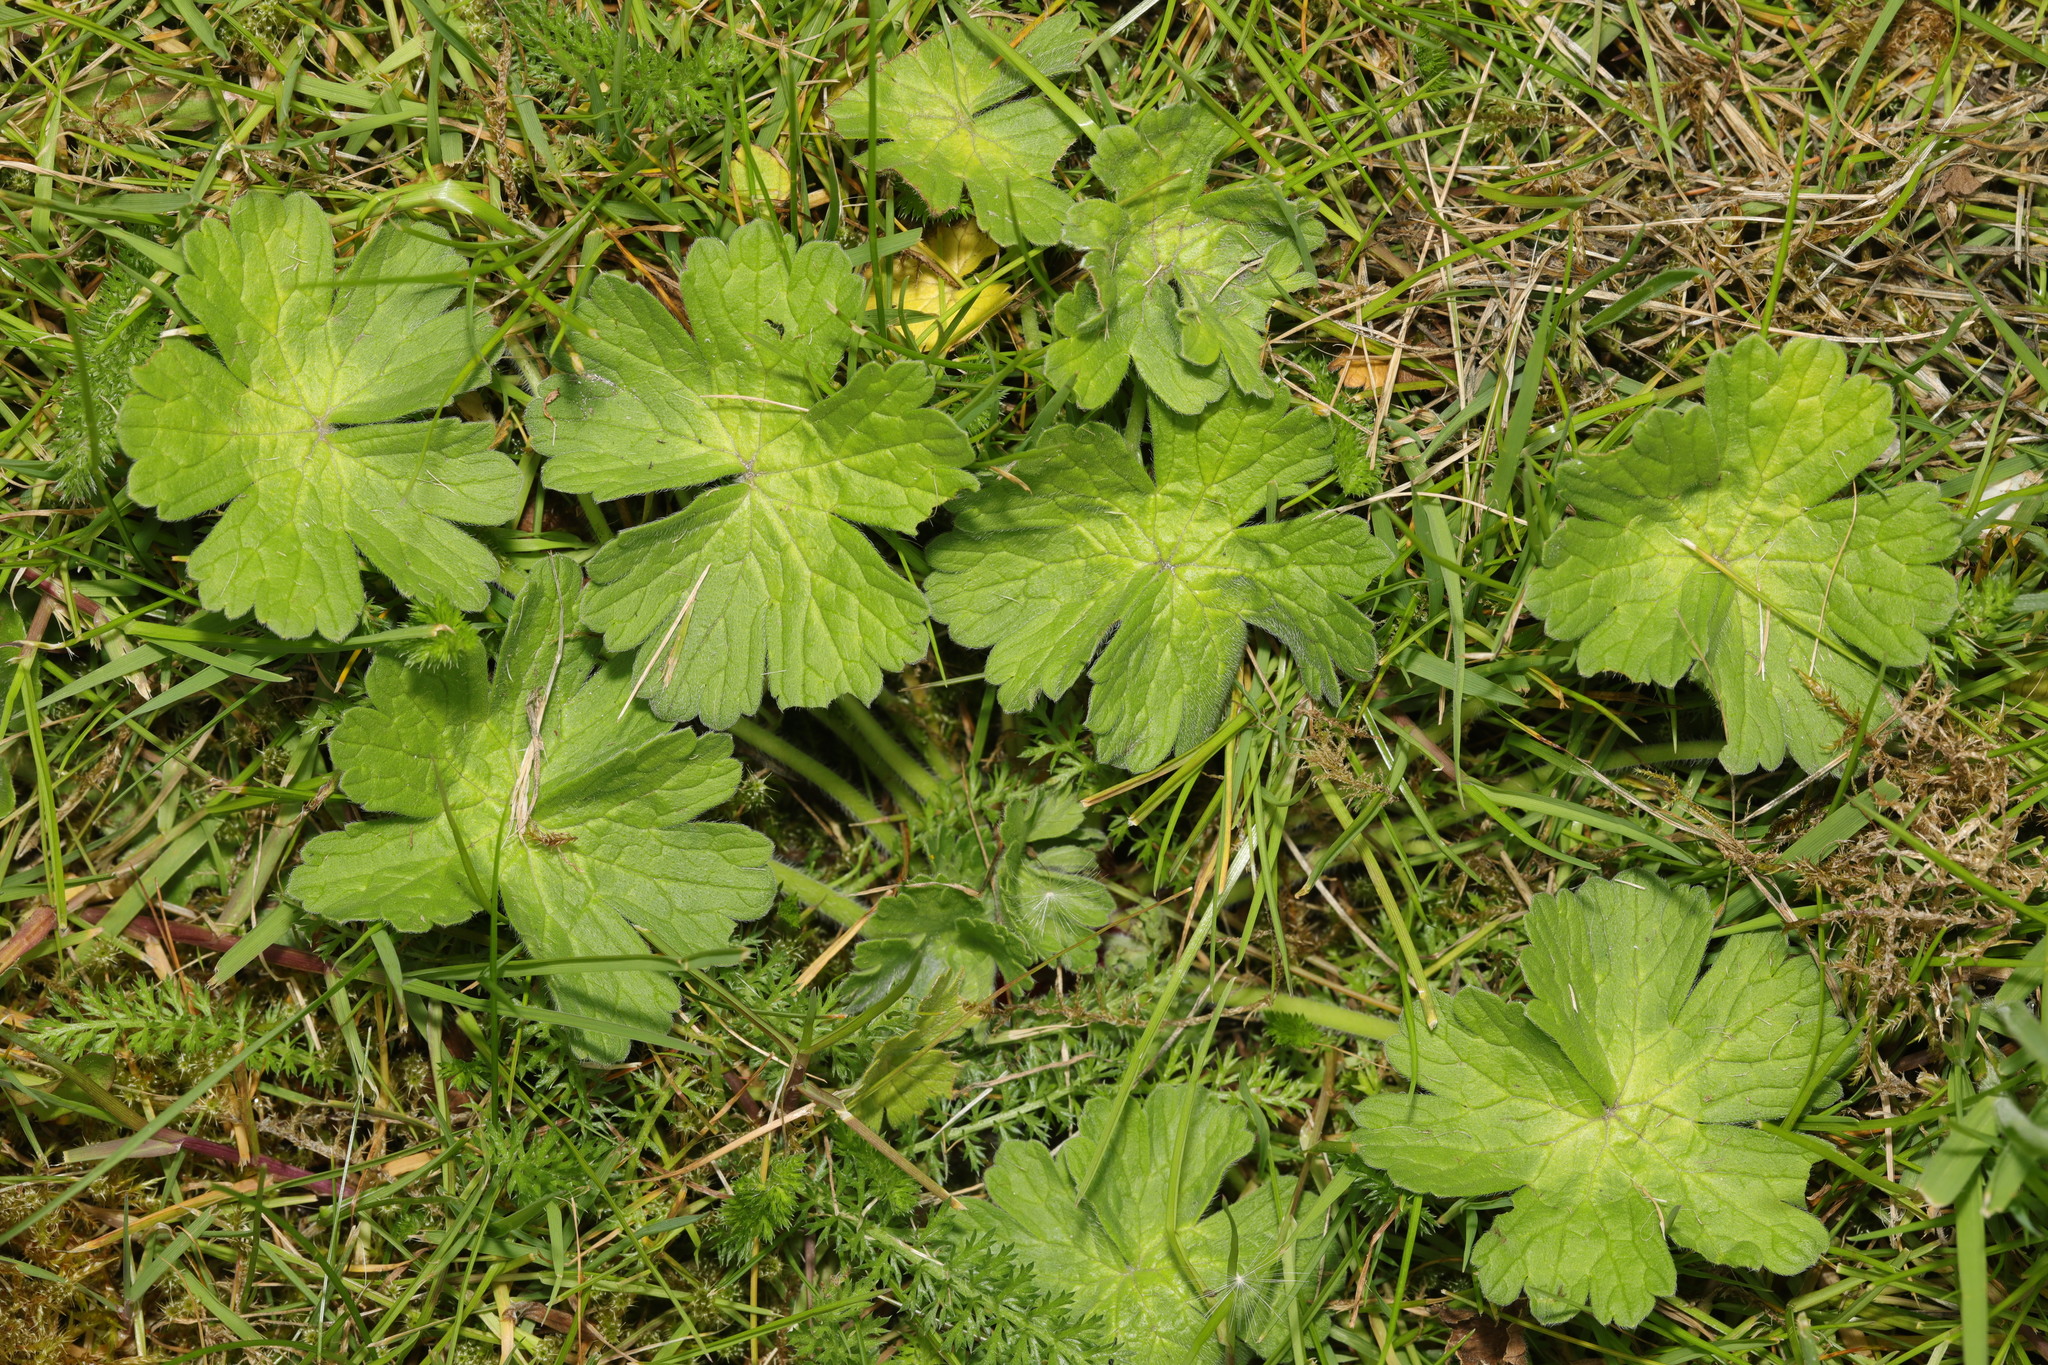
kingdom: Plantae
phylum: Tracheophyta
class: Magnoliopsida
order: Geraniales
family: Geraniaceae
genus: Geranium
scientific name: Geranium pyrenaicum
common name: Hedgerow crane's-bill
